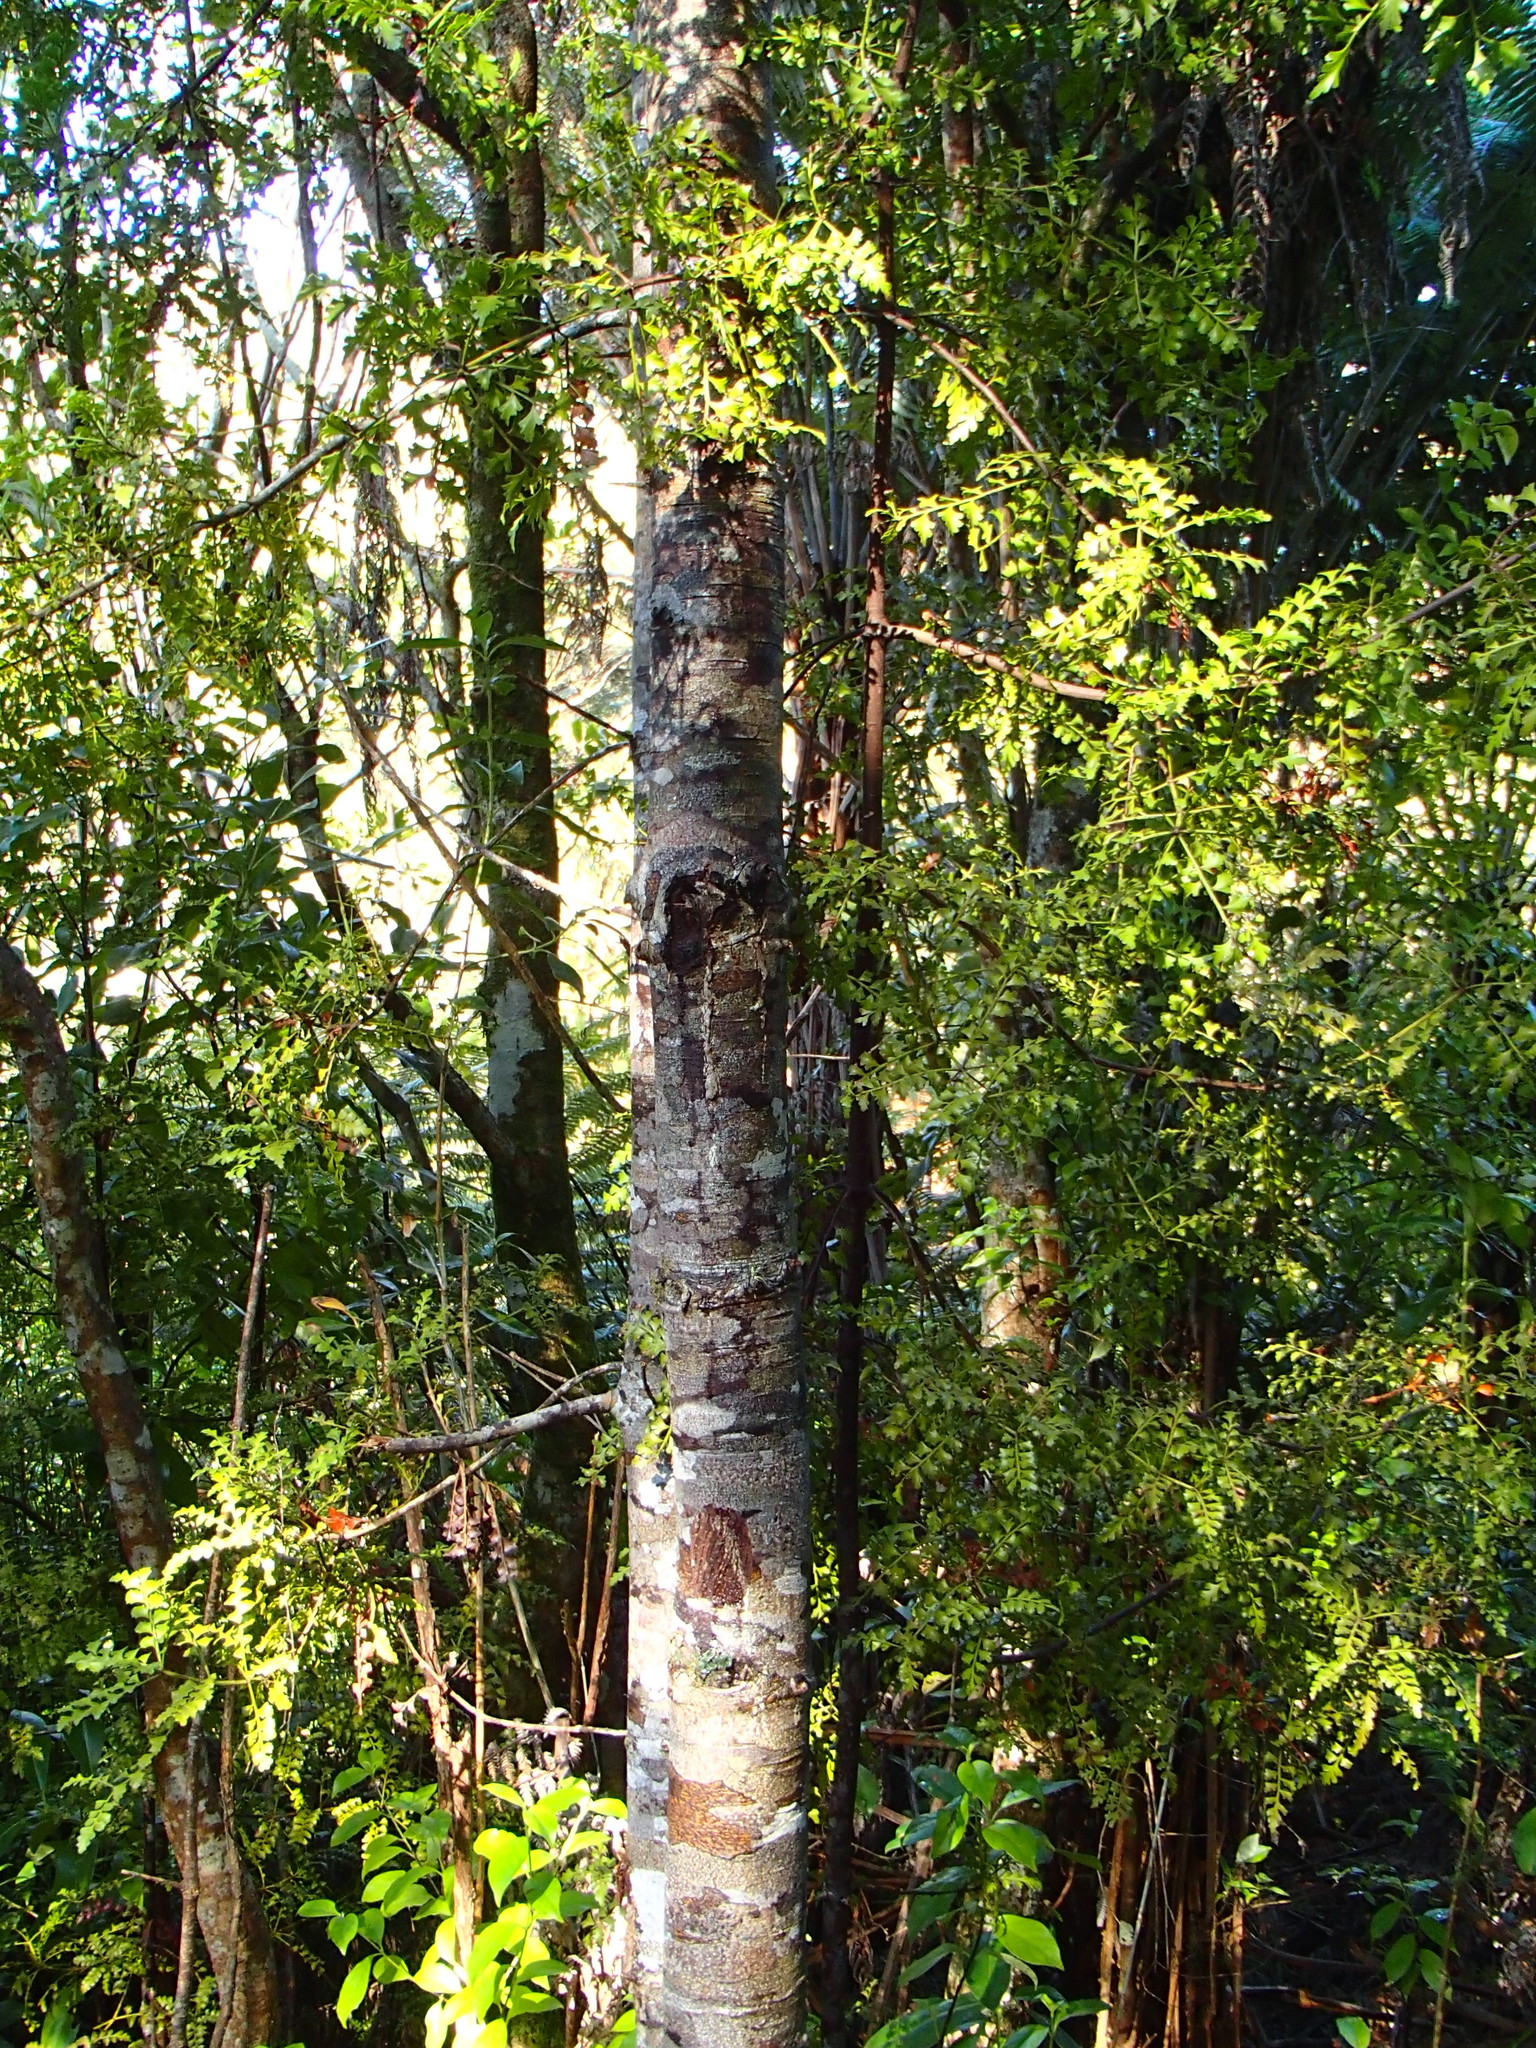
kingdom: Plantae
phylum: Tracheophyta
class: Pinopsida
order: Pinales
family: Phyllocladaceae
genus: Phyllocladus
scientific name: Phyllocladus trichomanoides
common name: Celery pine
